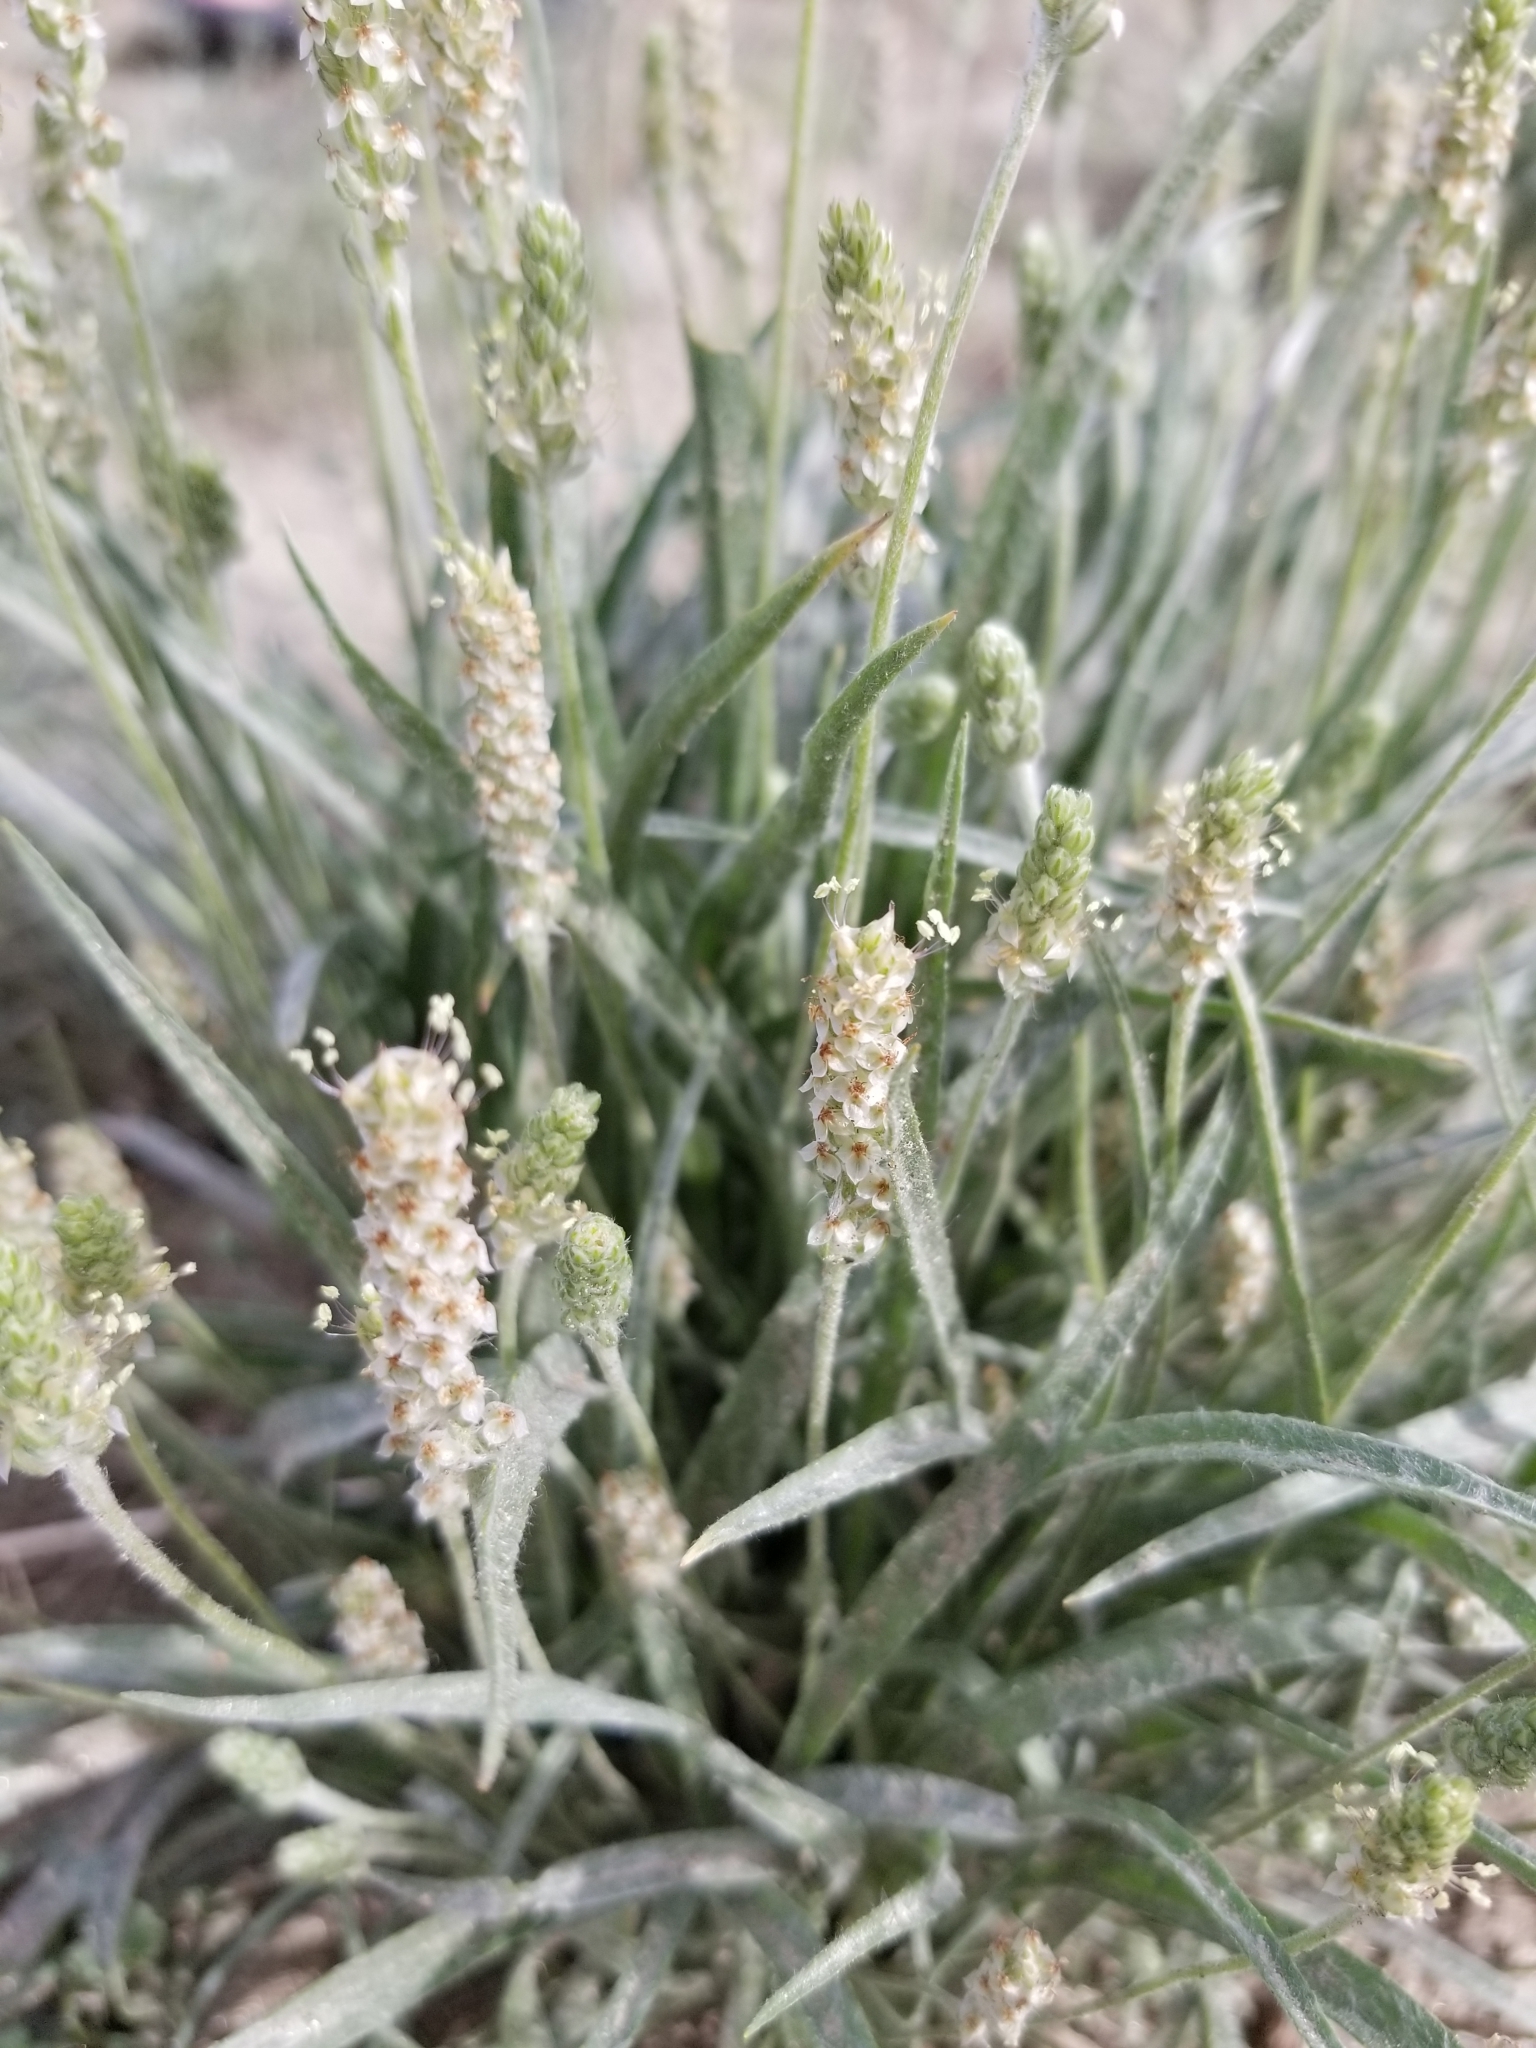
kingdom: Plantae
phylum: Tracheophyta
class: Magnoliopsida
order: Lamiales
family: Plantaginaceae
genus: Plantago
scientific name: Plantago ovata
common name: Blond plantain
